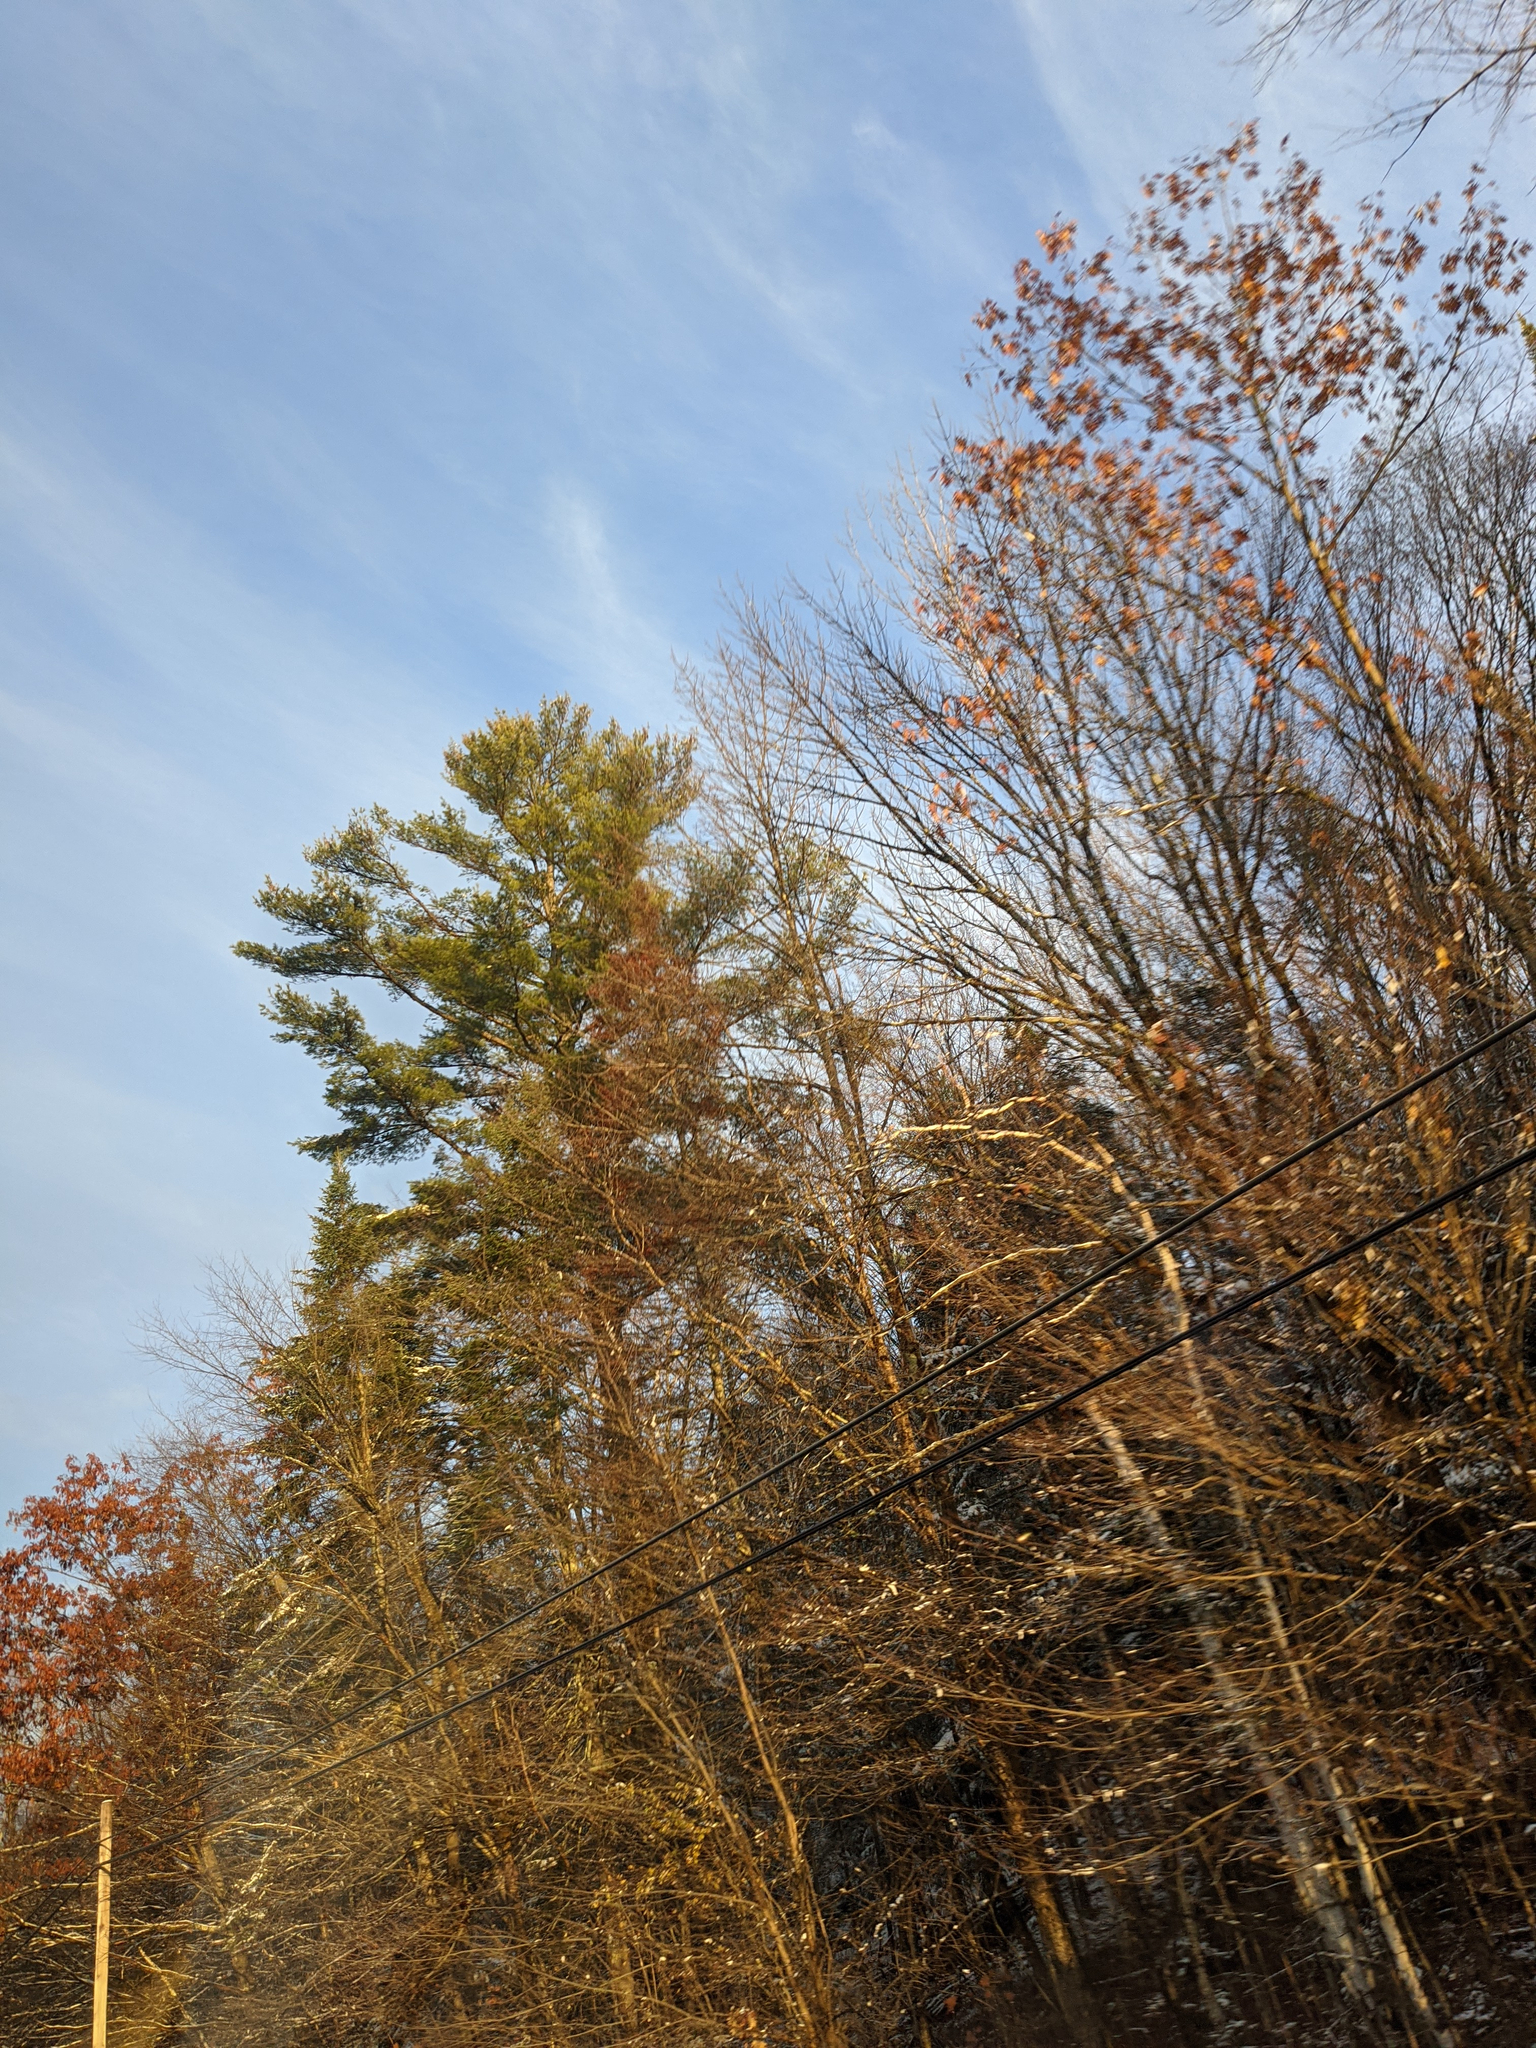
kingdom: Plantae
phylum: Tracheophyta
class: Pinopsida
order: Pinales
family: Pinaceae
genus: Pinus
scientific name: Pinus strobus
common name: Weymouth pine
